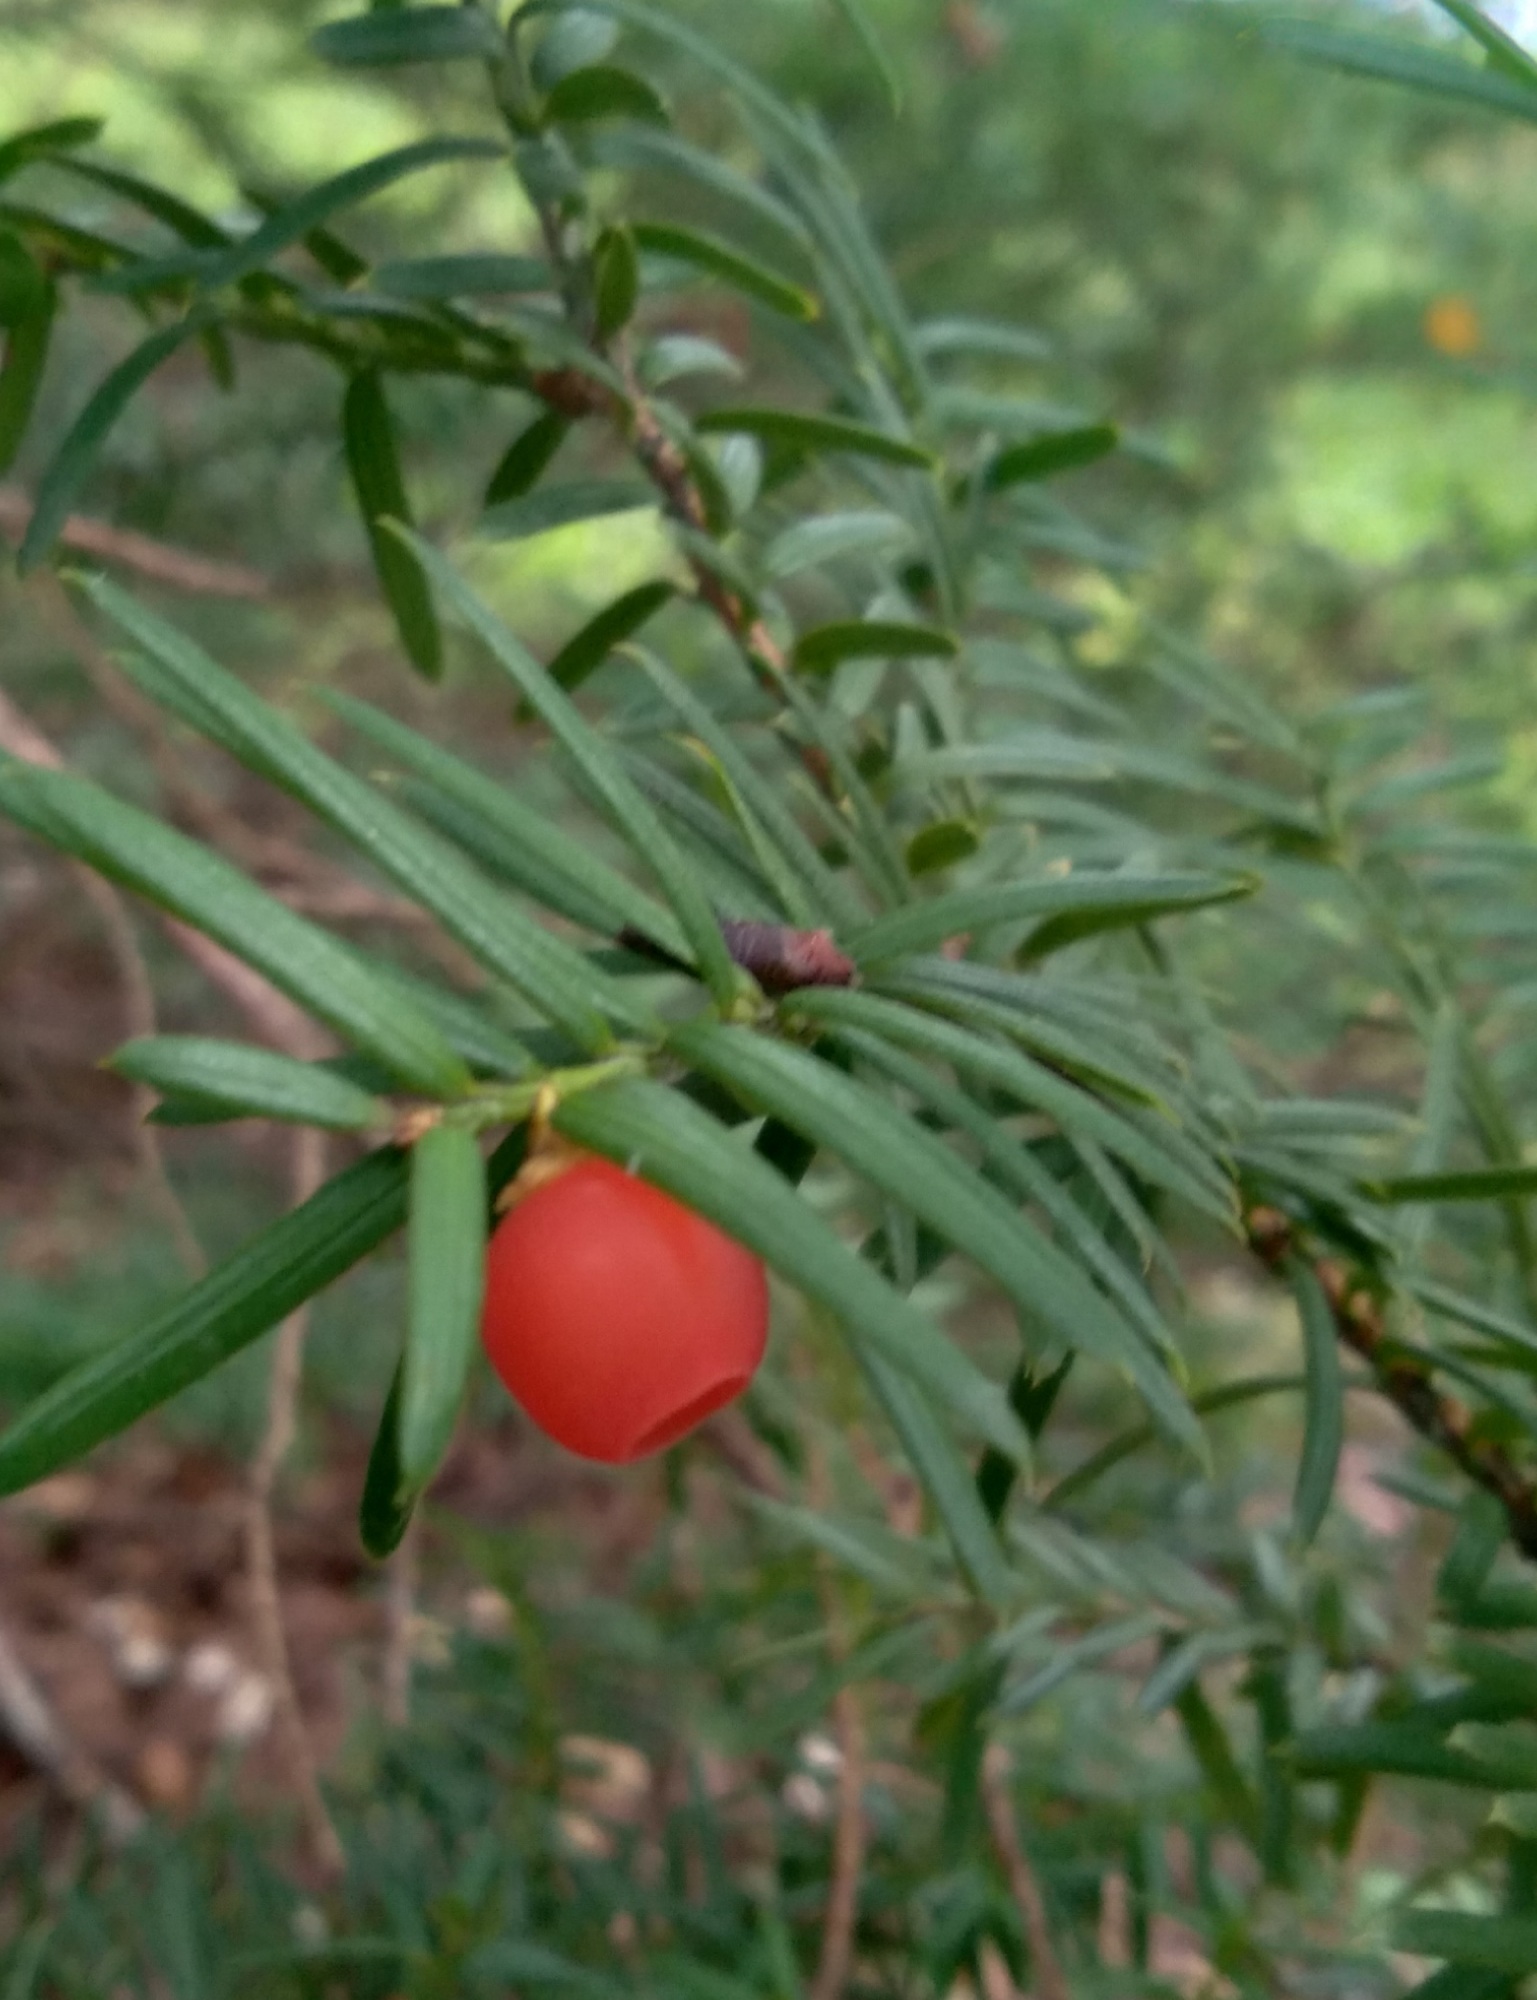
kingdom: Plantae
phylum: Tracheophyta
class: Pinopsida
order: Pinales
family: Taxaceae
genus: Taxus
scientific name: Taxus cuspidata
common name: Japanese yew
